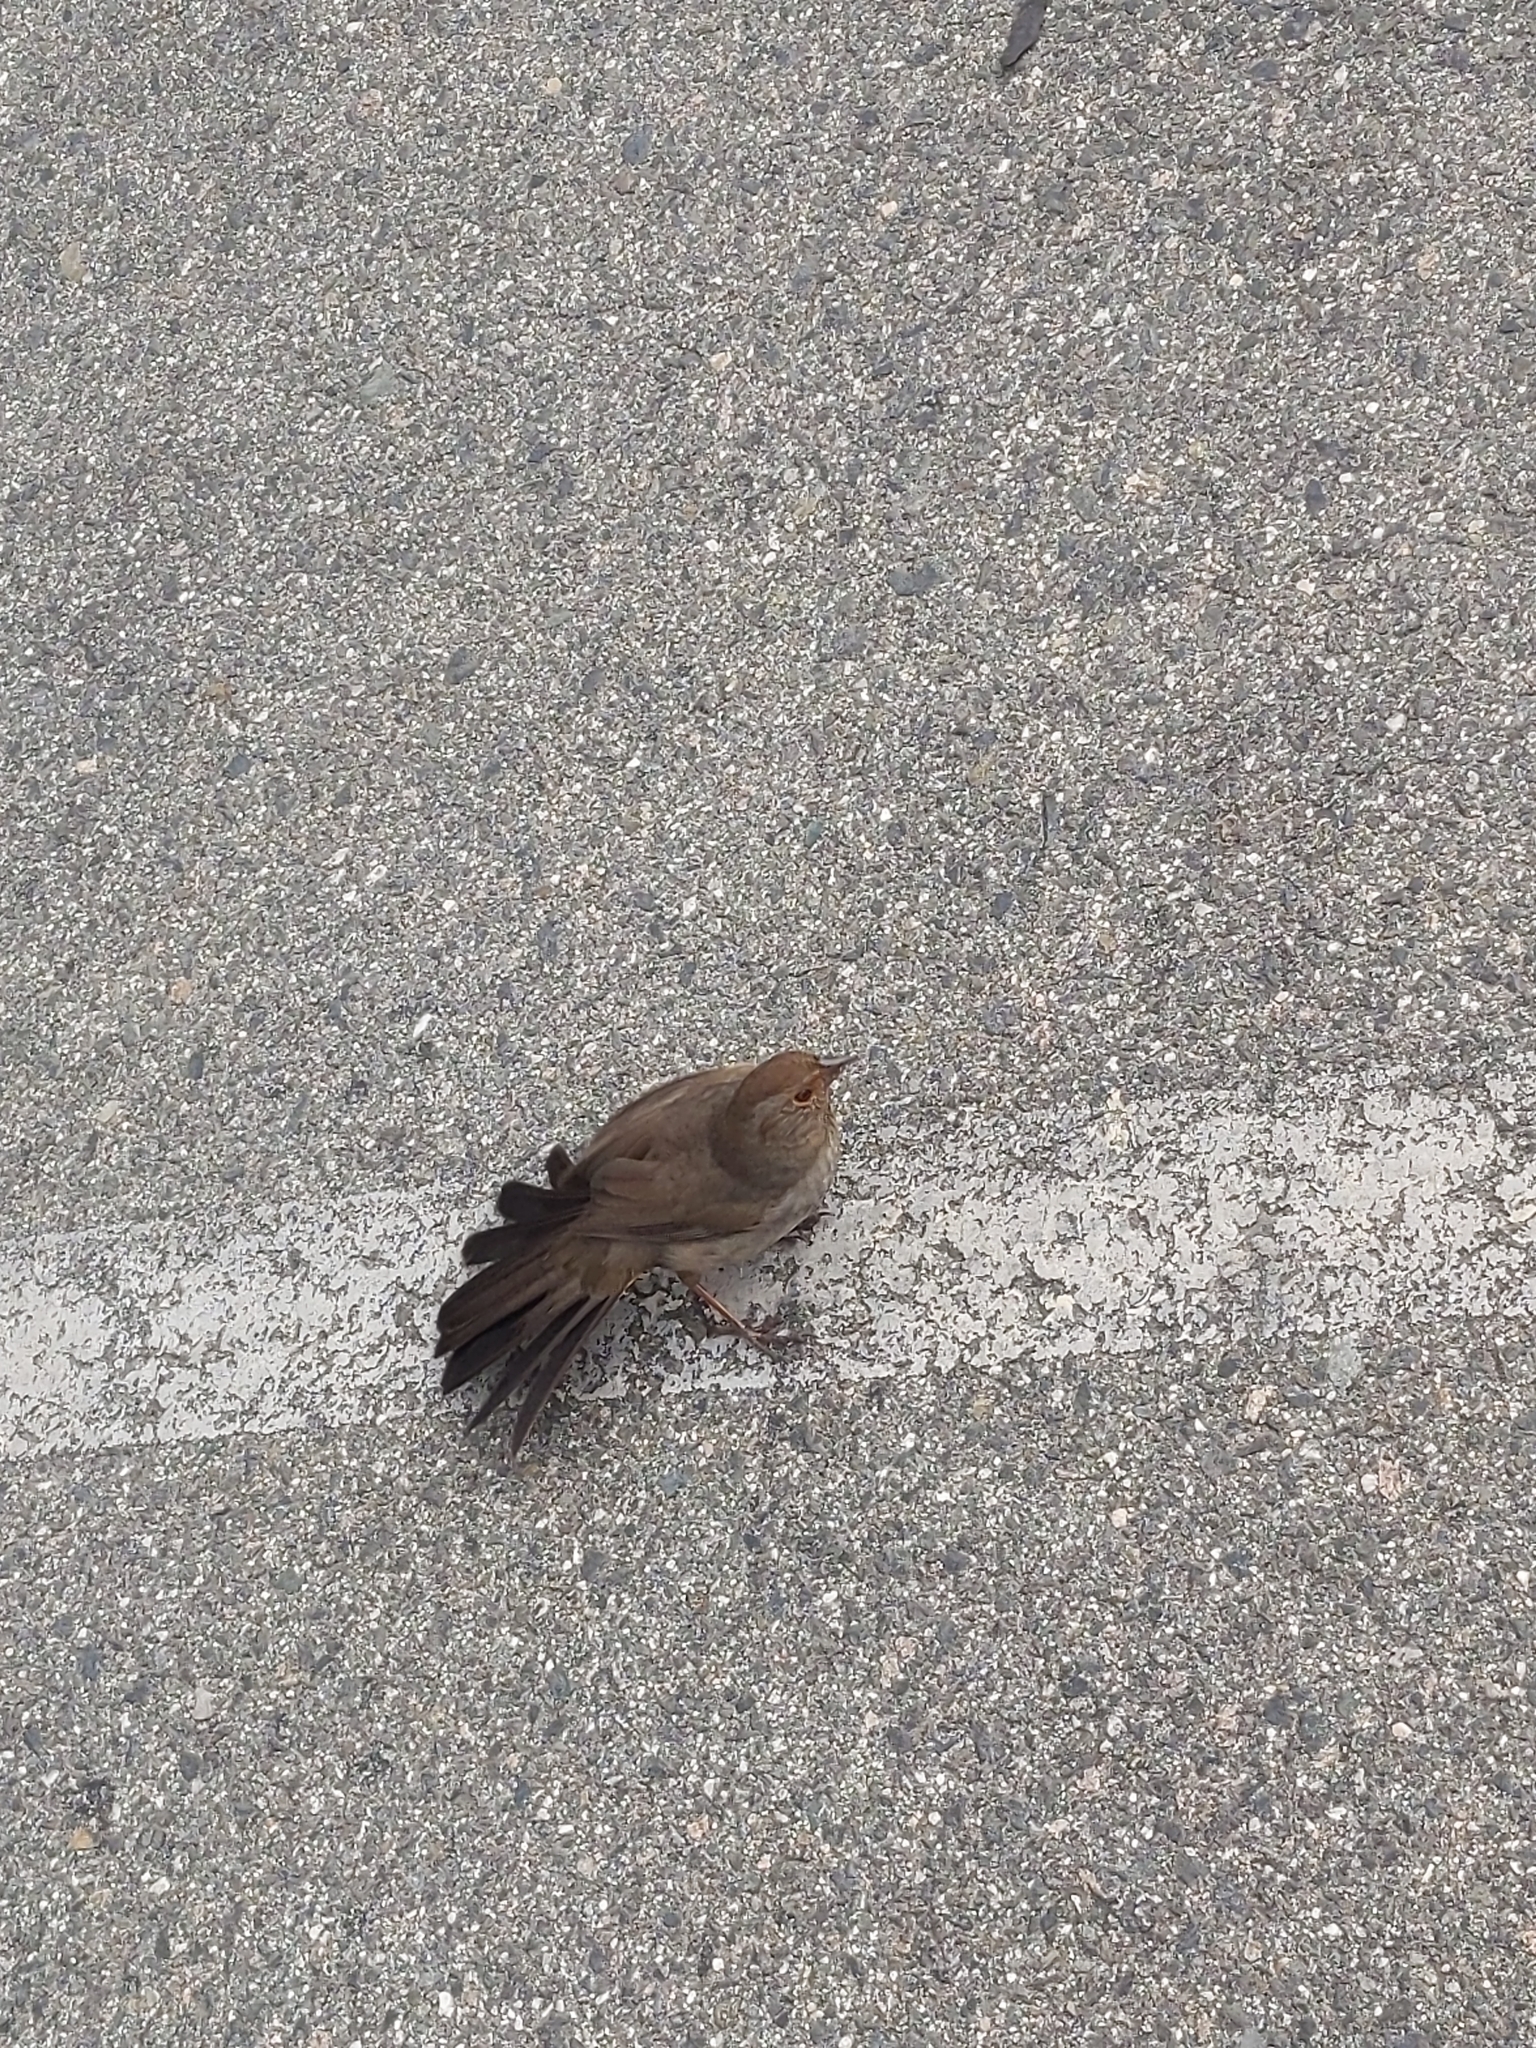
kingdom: Animalia
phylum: Chordata
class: Aves
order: Passeriformes
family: Passerellidae
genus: Melozone
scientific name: Melozone crissalis
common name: California towhee
